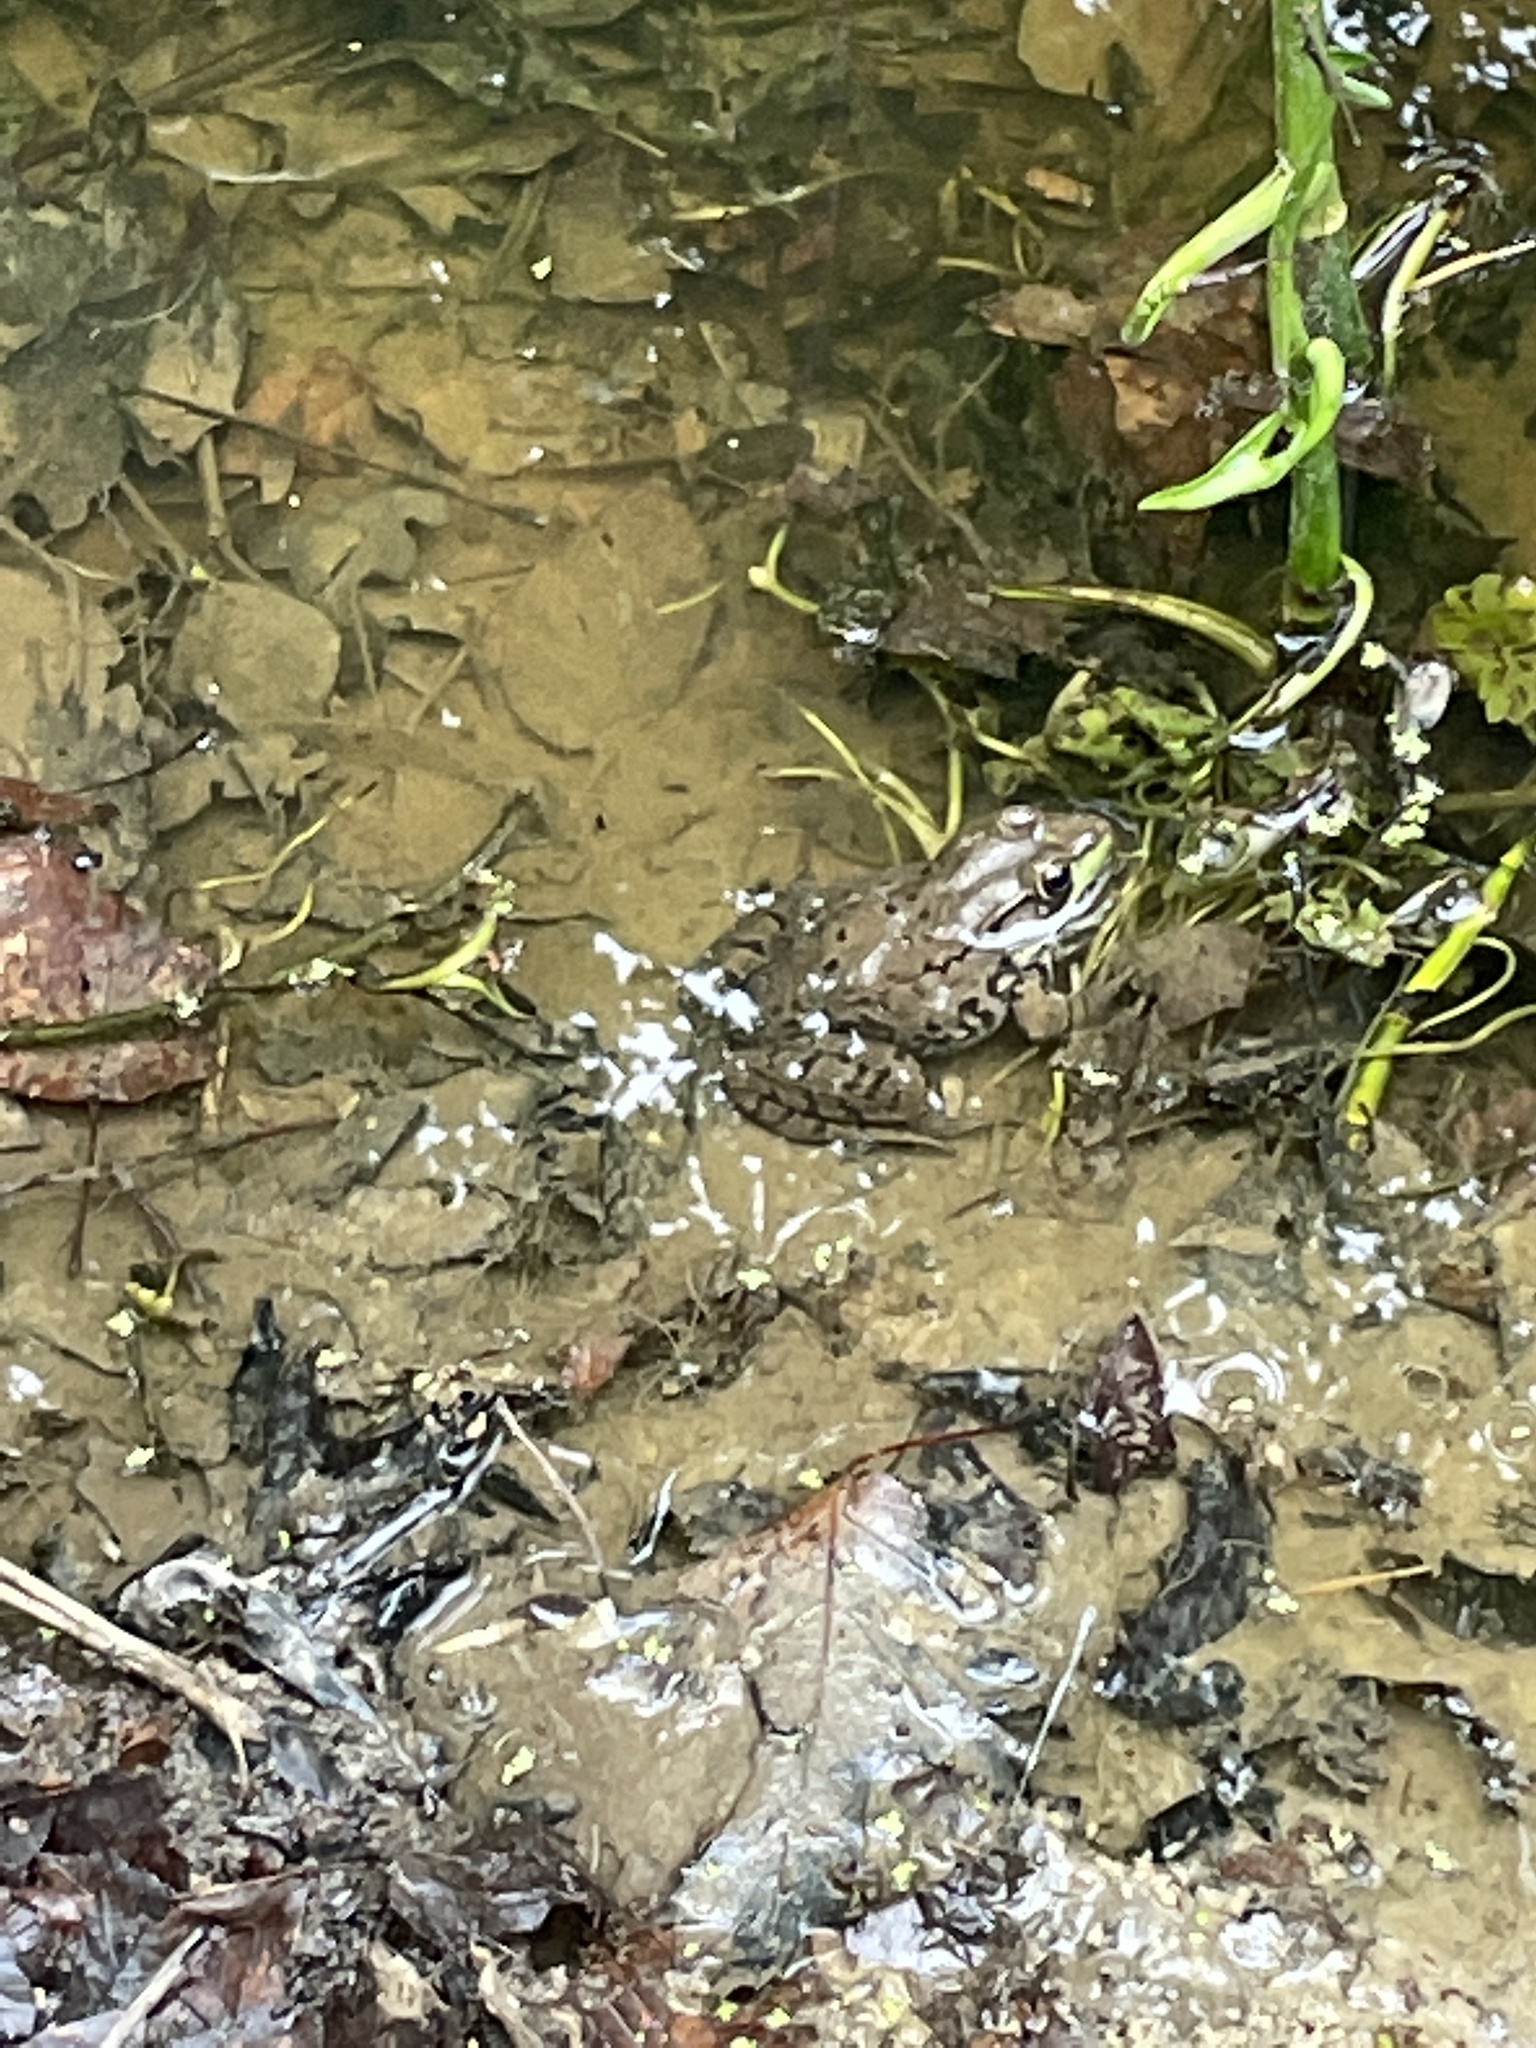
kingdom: Animalia
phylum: Chordata
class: Amphibia
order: Anura
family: Ranidae
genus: Lithobates
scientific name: Lithobates clamitans
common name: Green frog
